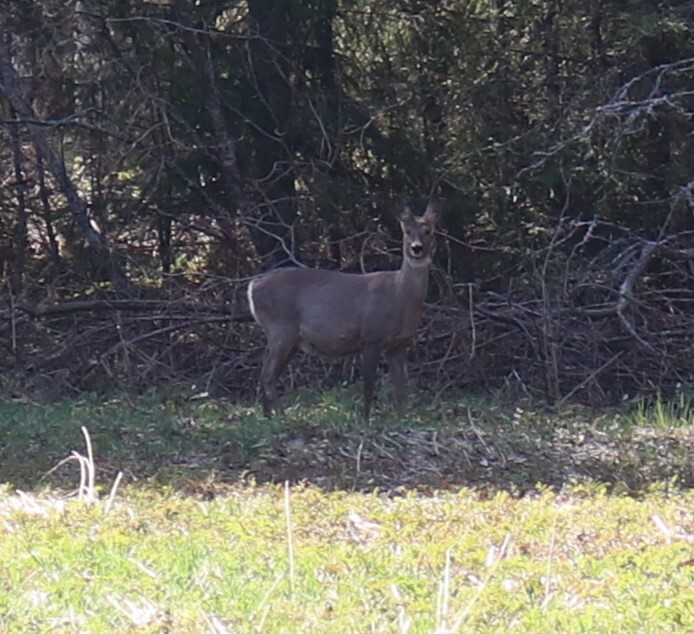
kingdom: Animalia
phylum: Chordata
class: Mammalia
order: Artiodactyla
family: Cervidae
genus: Capreolus
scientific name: Capreolus capreolus
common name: Western roe deer
